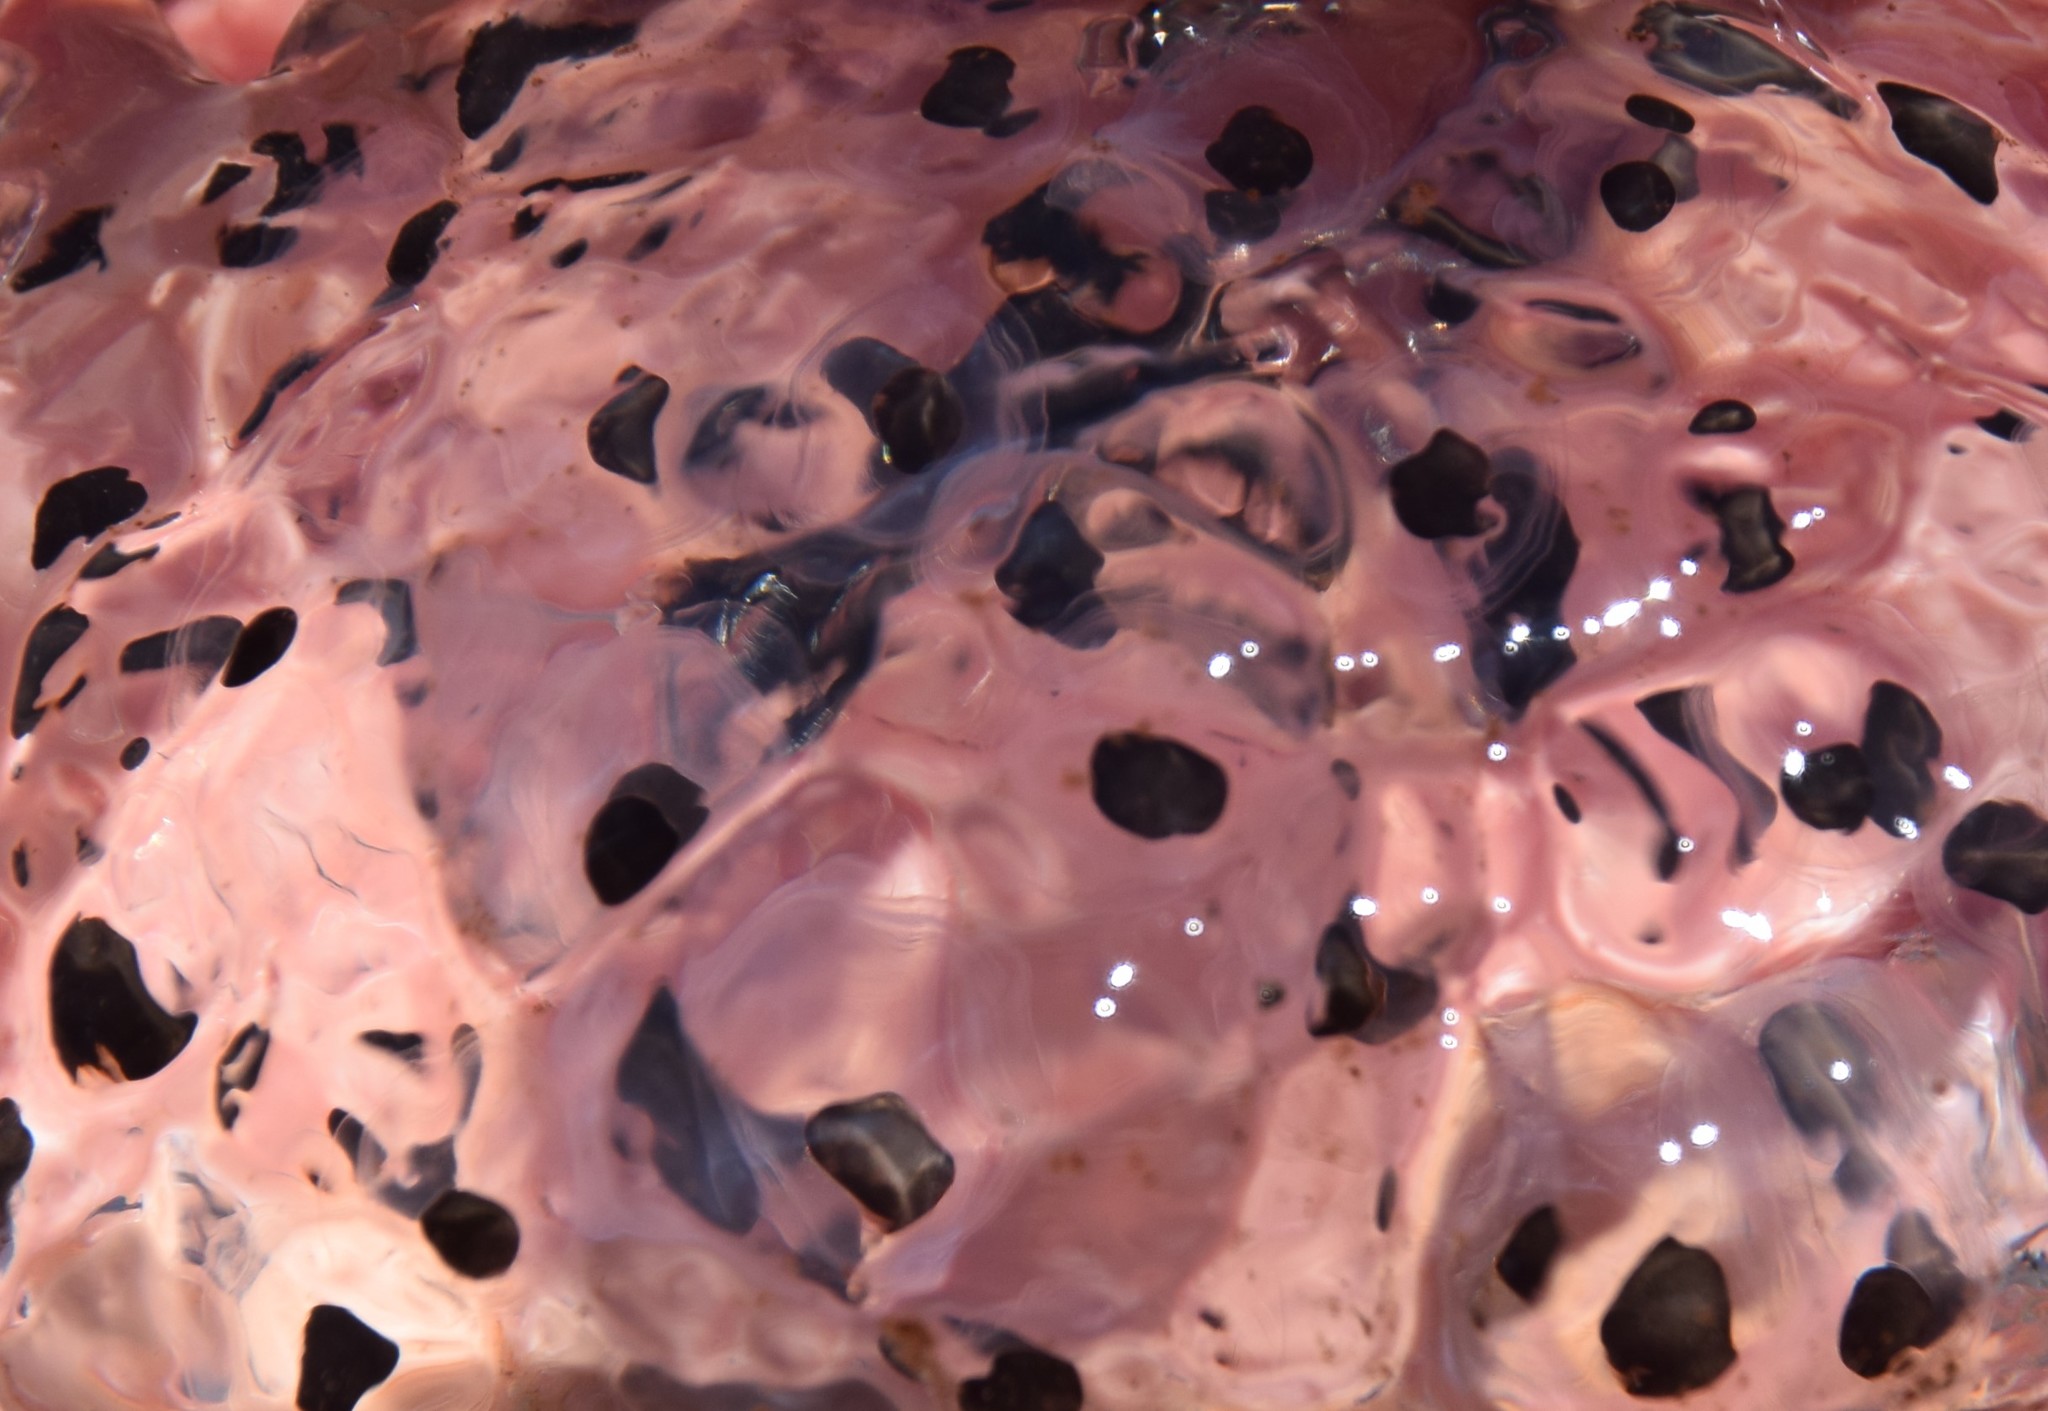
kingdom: Animalia
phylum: Chordata
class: Amphibia
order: Caudata
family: Ambystomatidae
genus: Ambystoma
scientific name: Ambystoma maculatum
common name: Spotted salamander
